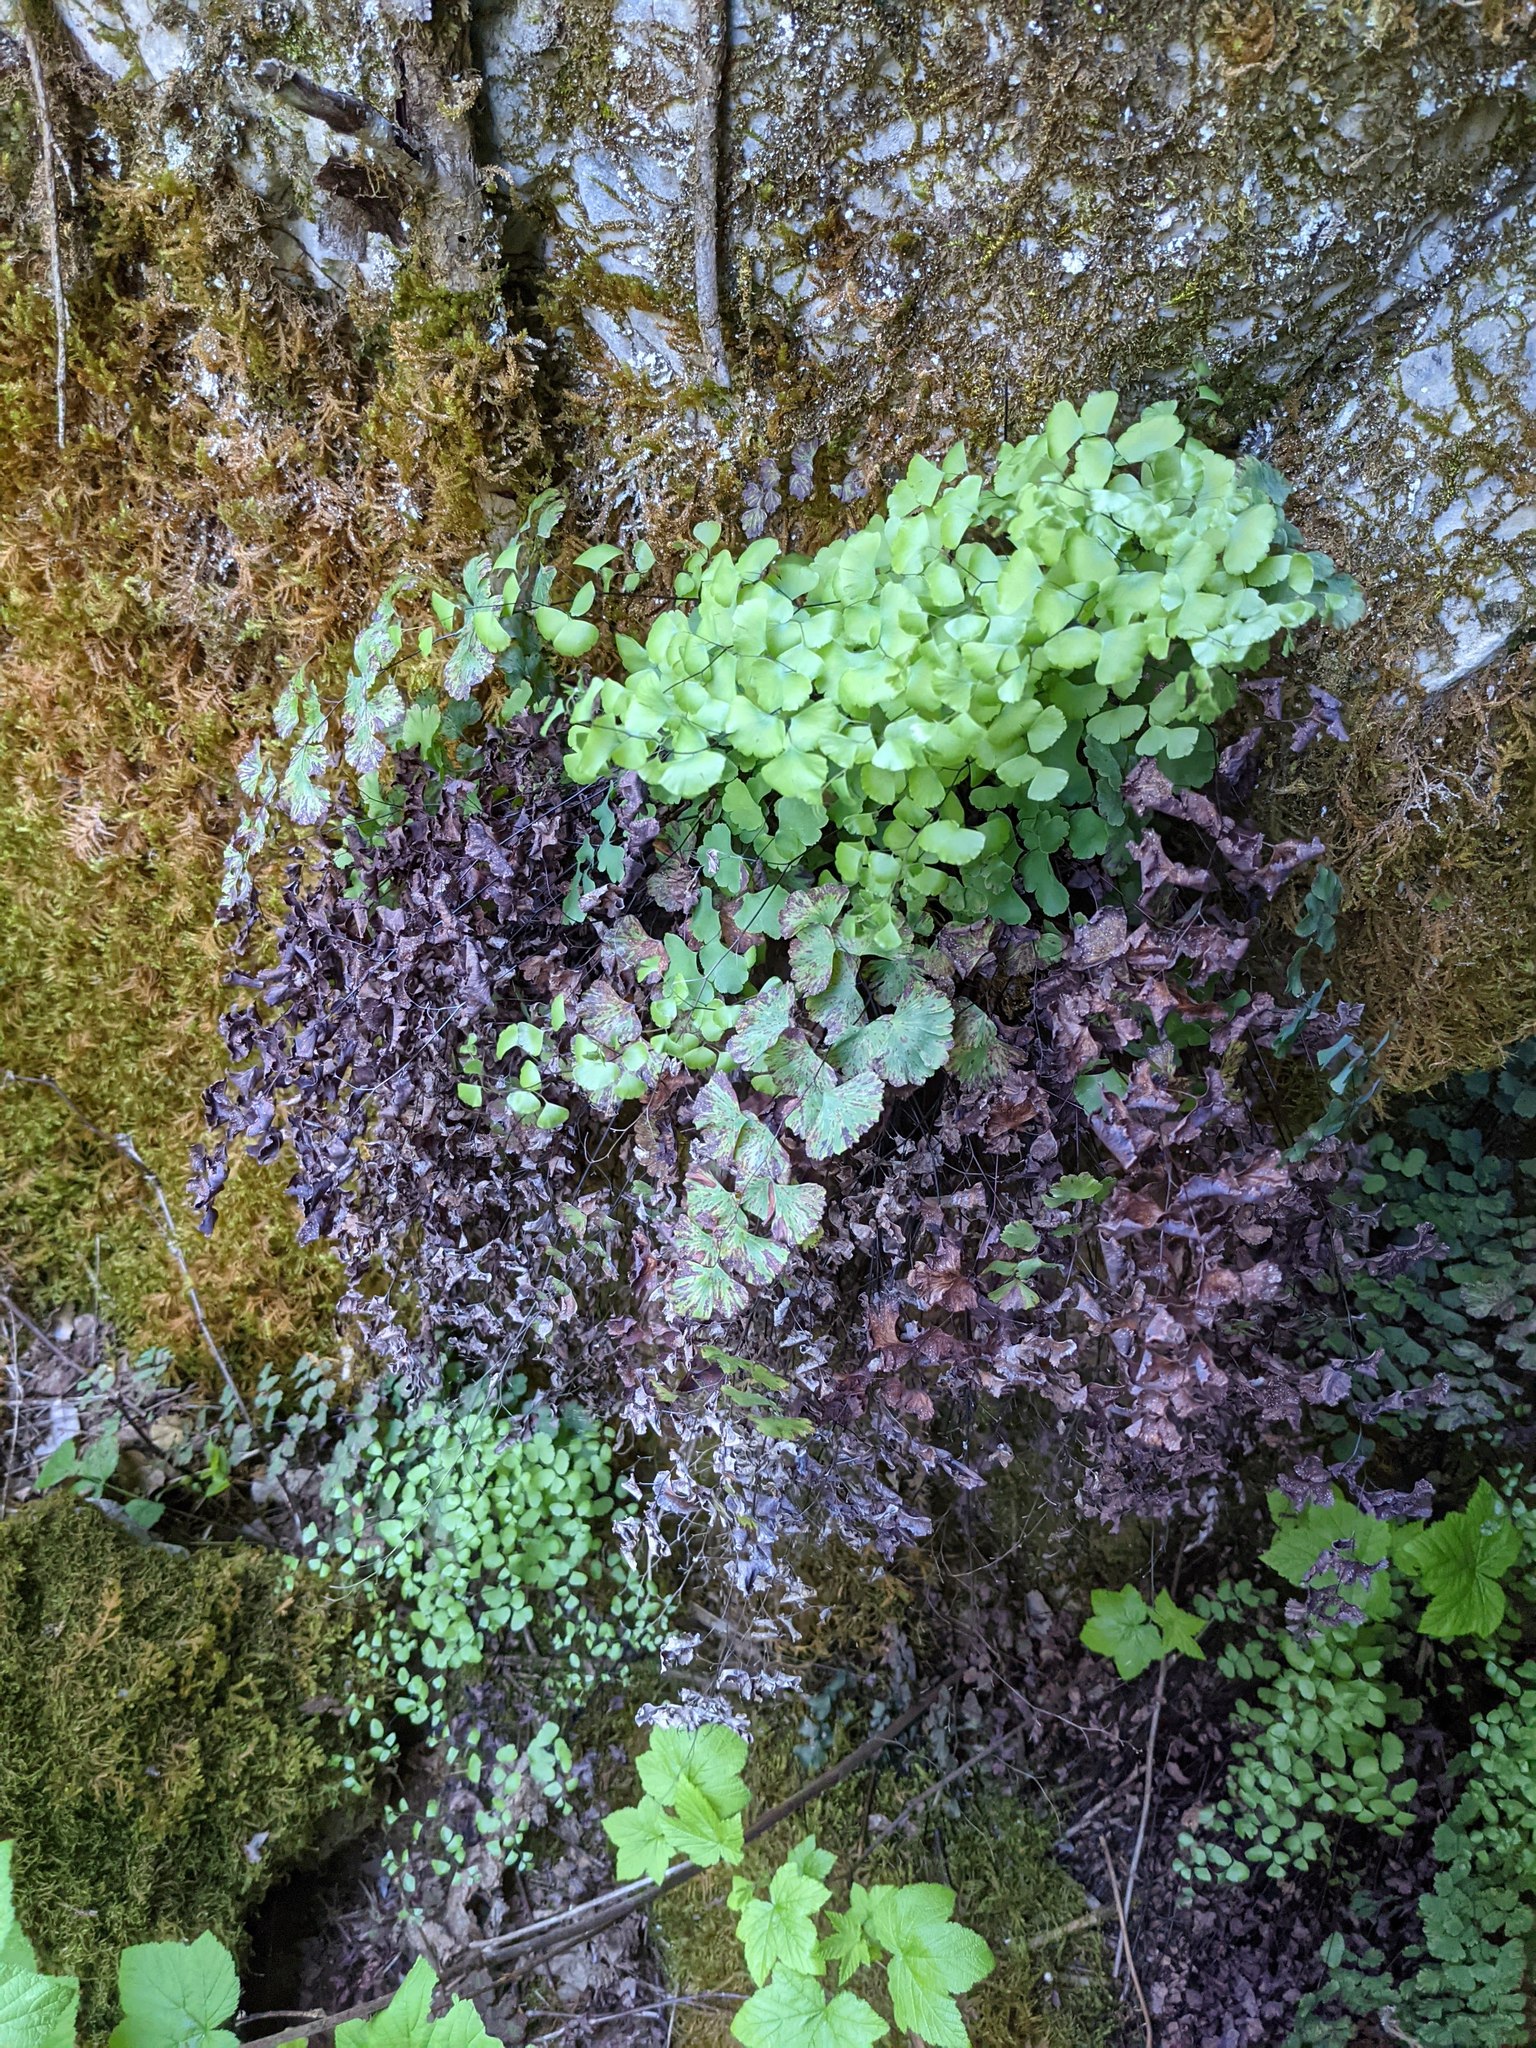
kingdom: Plantae
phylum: Tracheophyta
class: Polypodiopsida
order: Polypodiales
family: Pteridaceae
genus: Adiantum
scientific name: Adiantum shastense
